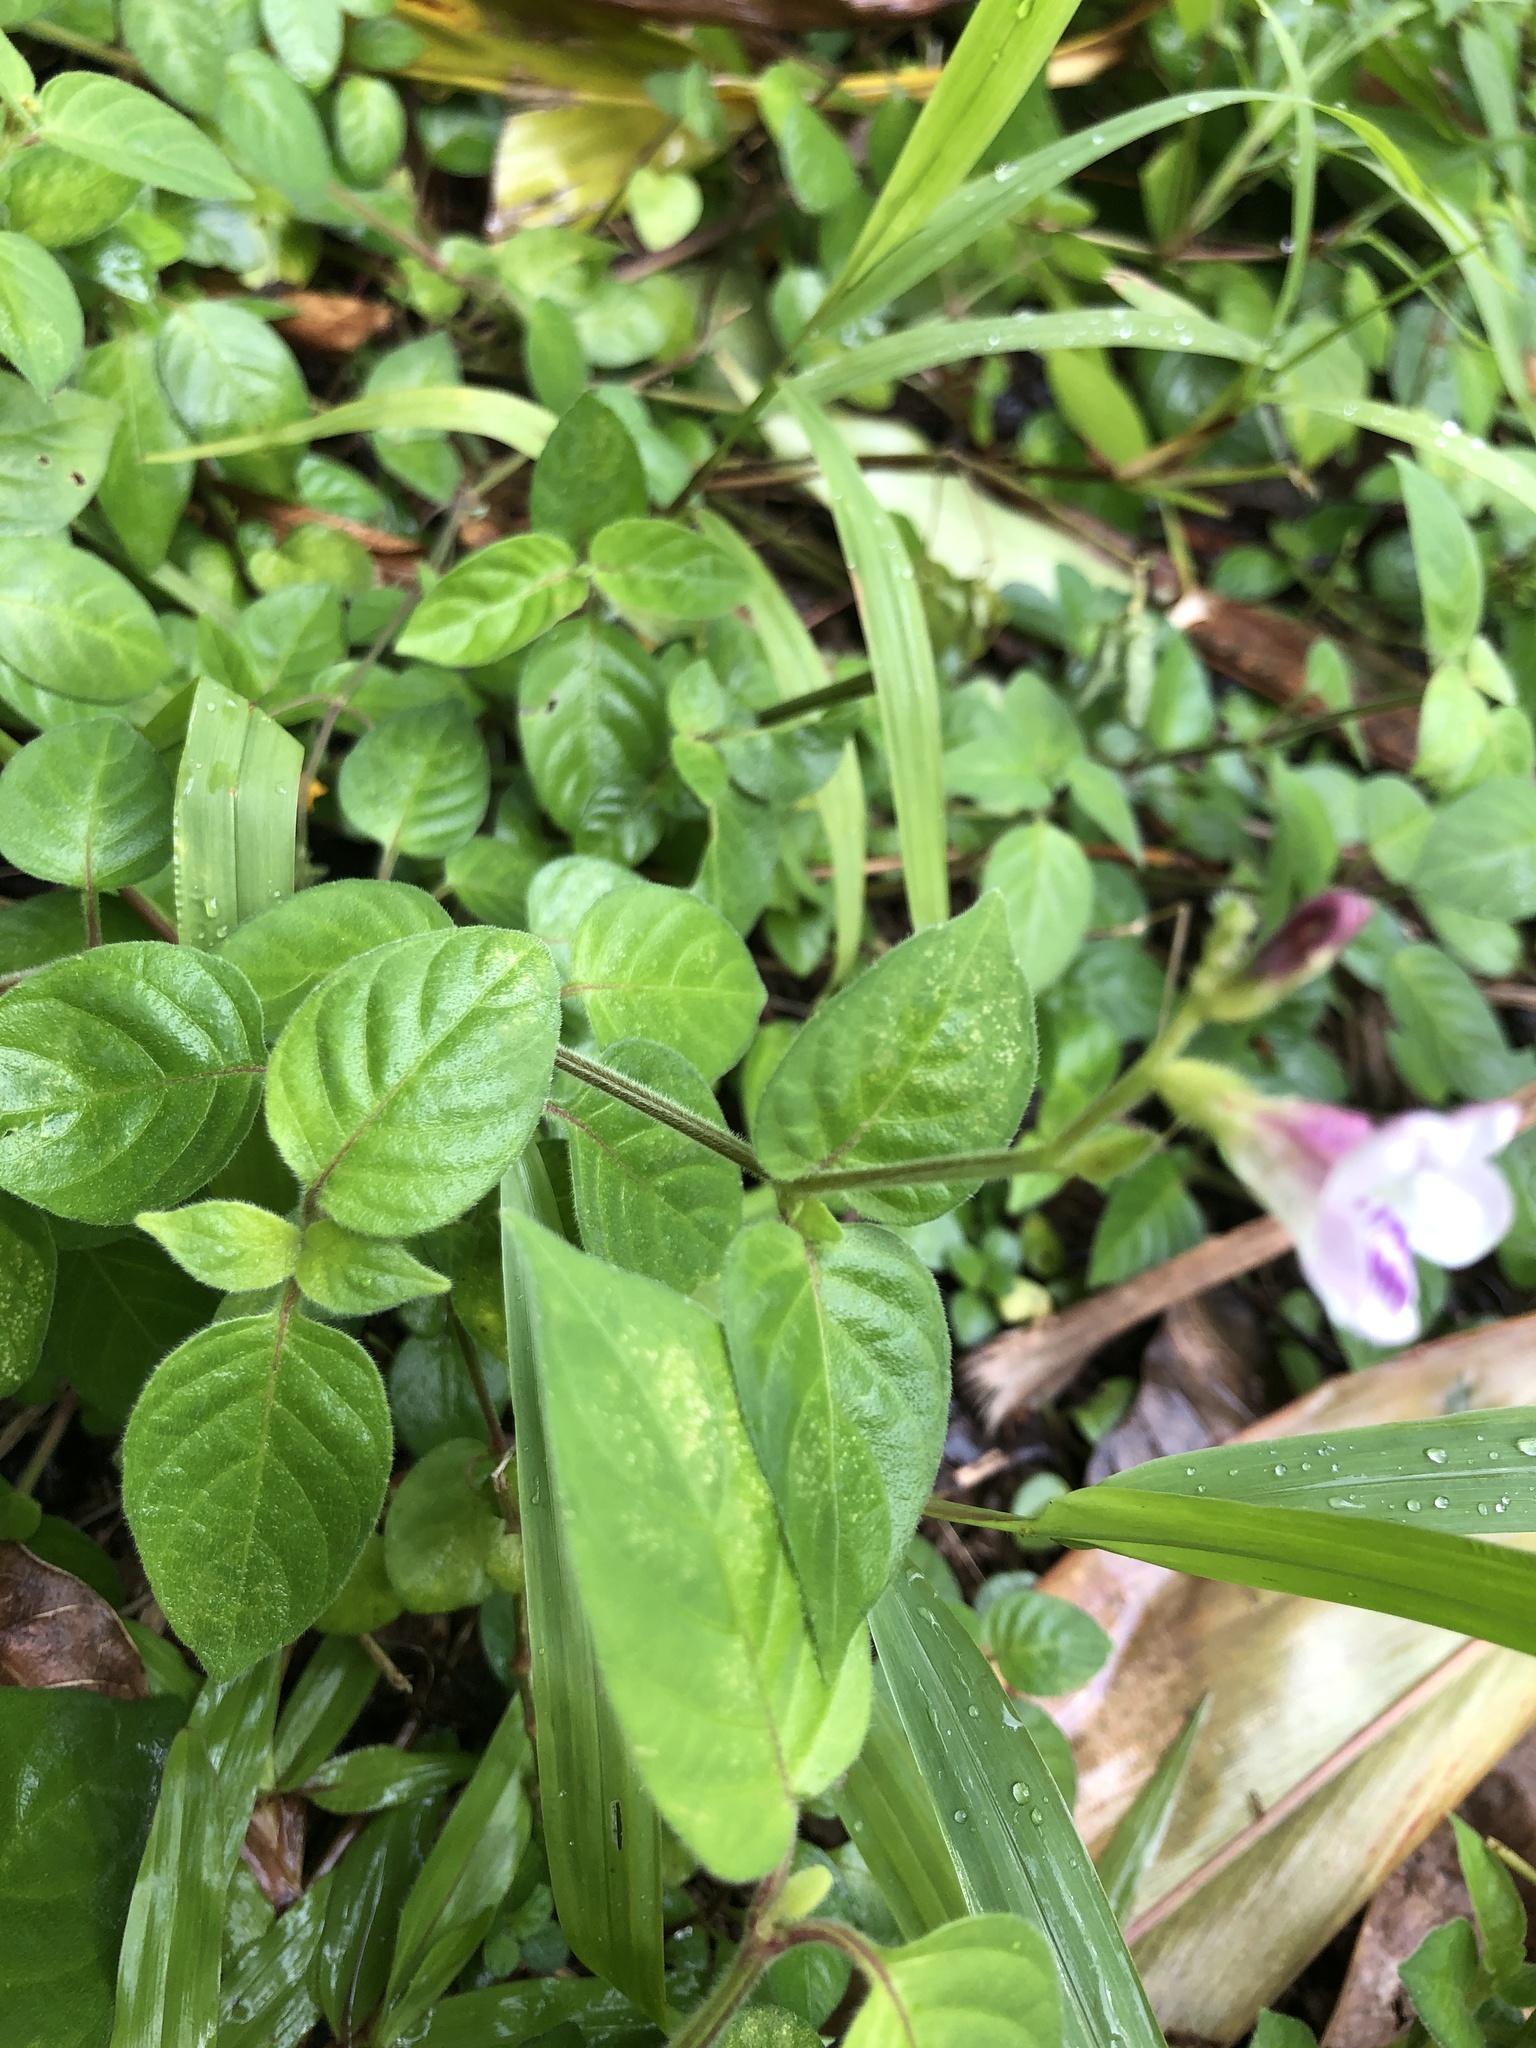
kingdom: Plantae
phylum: Tracheophyta
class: Magnoliopsida
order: Lamiales
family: Acanthaceae
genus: Asystasia
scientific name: Asystasia intrusa
